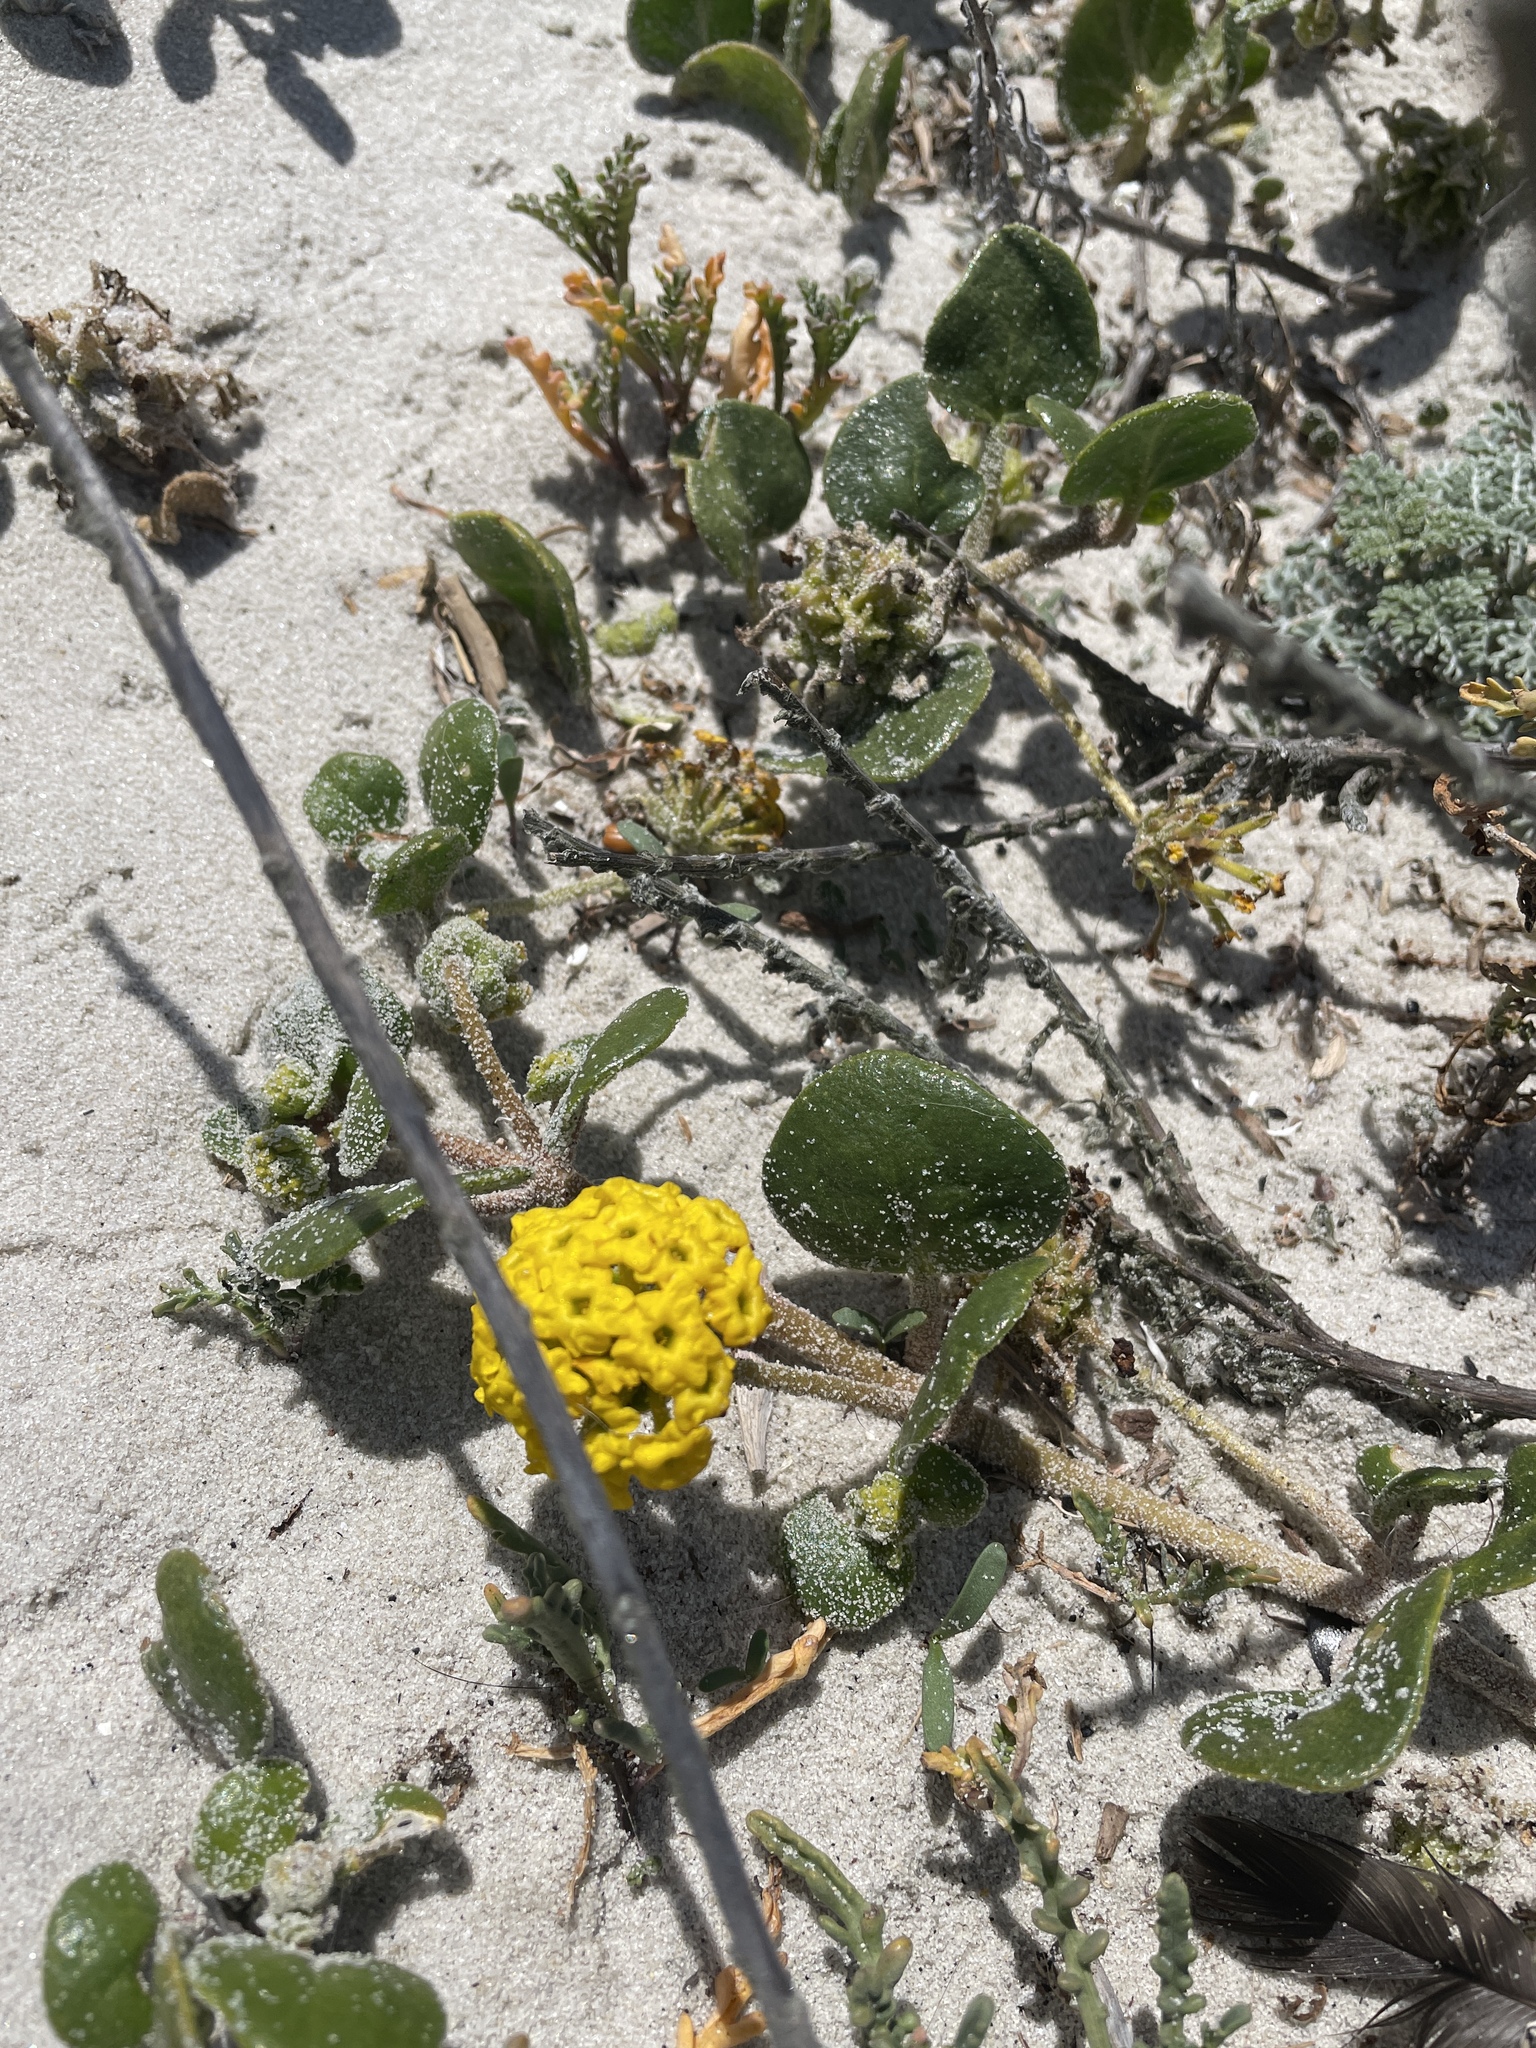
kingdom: Plantae
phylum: Tracheophyta
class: Magnoliopsida
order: Caryophyllales
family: Nyctaginaceae
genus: Abronia
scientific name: Abronia latifolia
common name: Yellow sand-verbena
